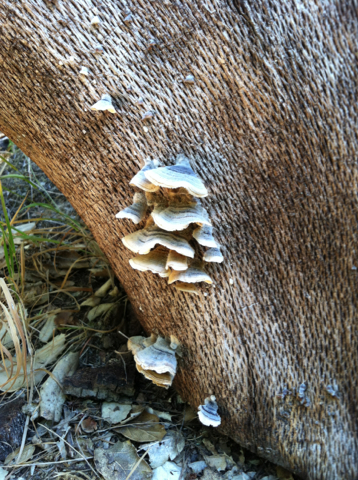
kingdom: Fungi
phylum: Basidiomycota
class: Agaricomycetes
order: Polyporales
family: Polyporaceae
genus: Trametes
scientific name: Trametes versicolor
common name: Turkeytail
